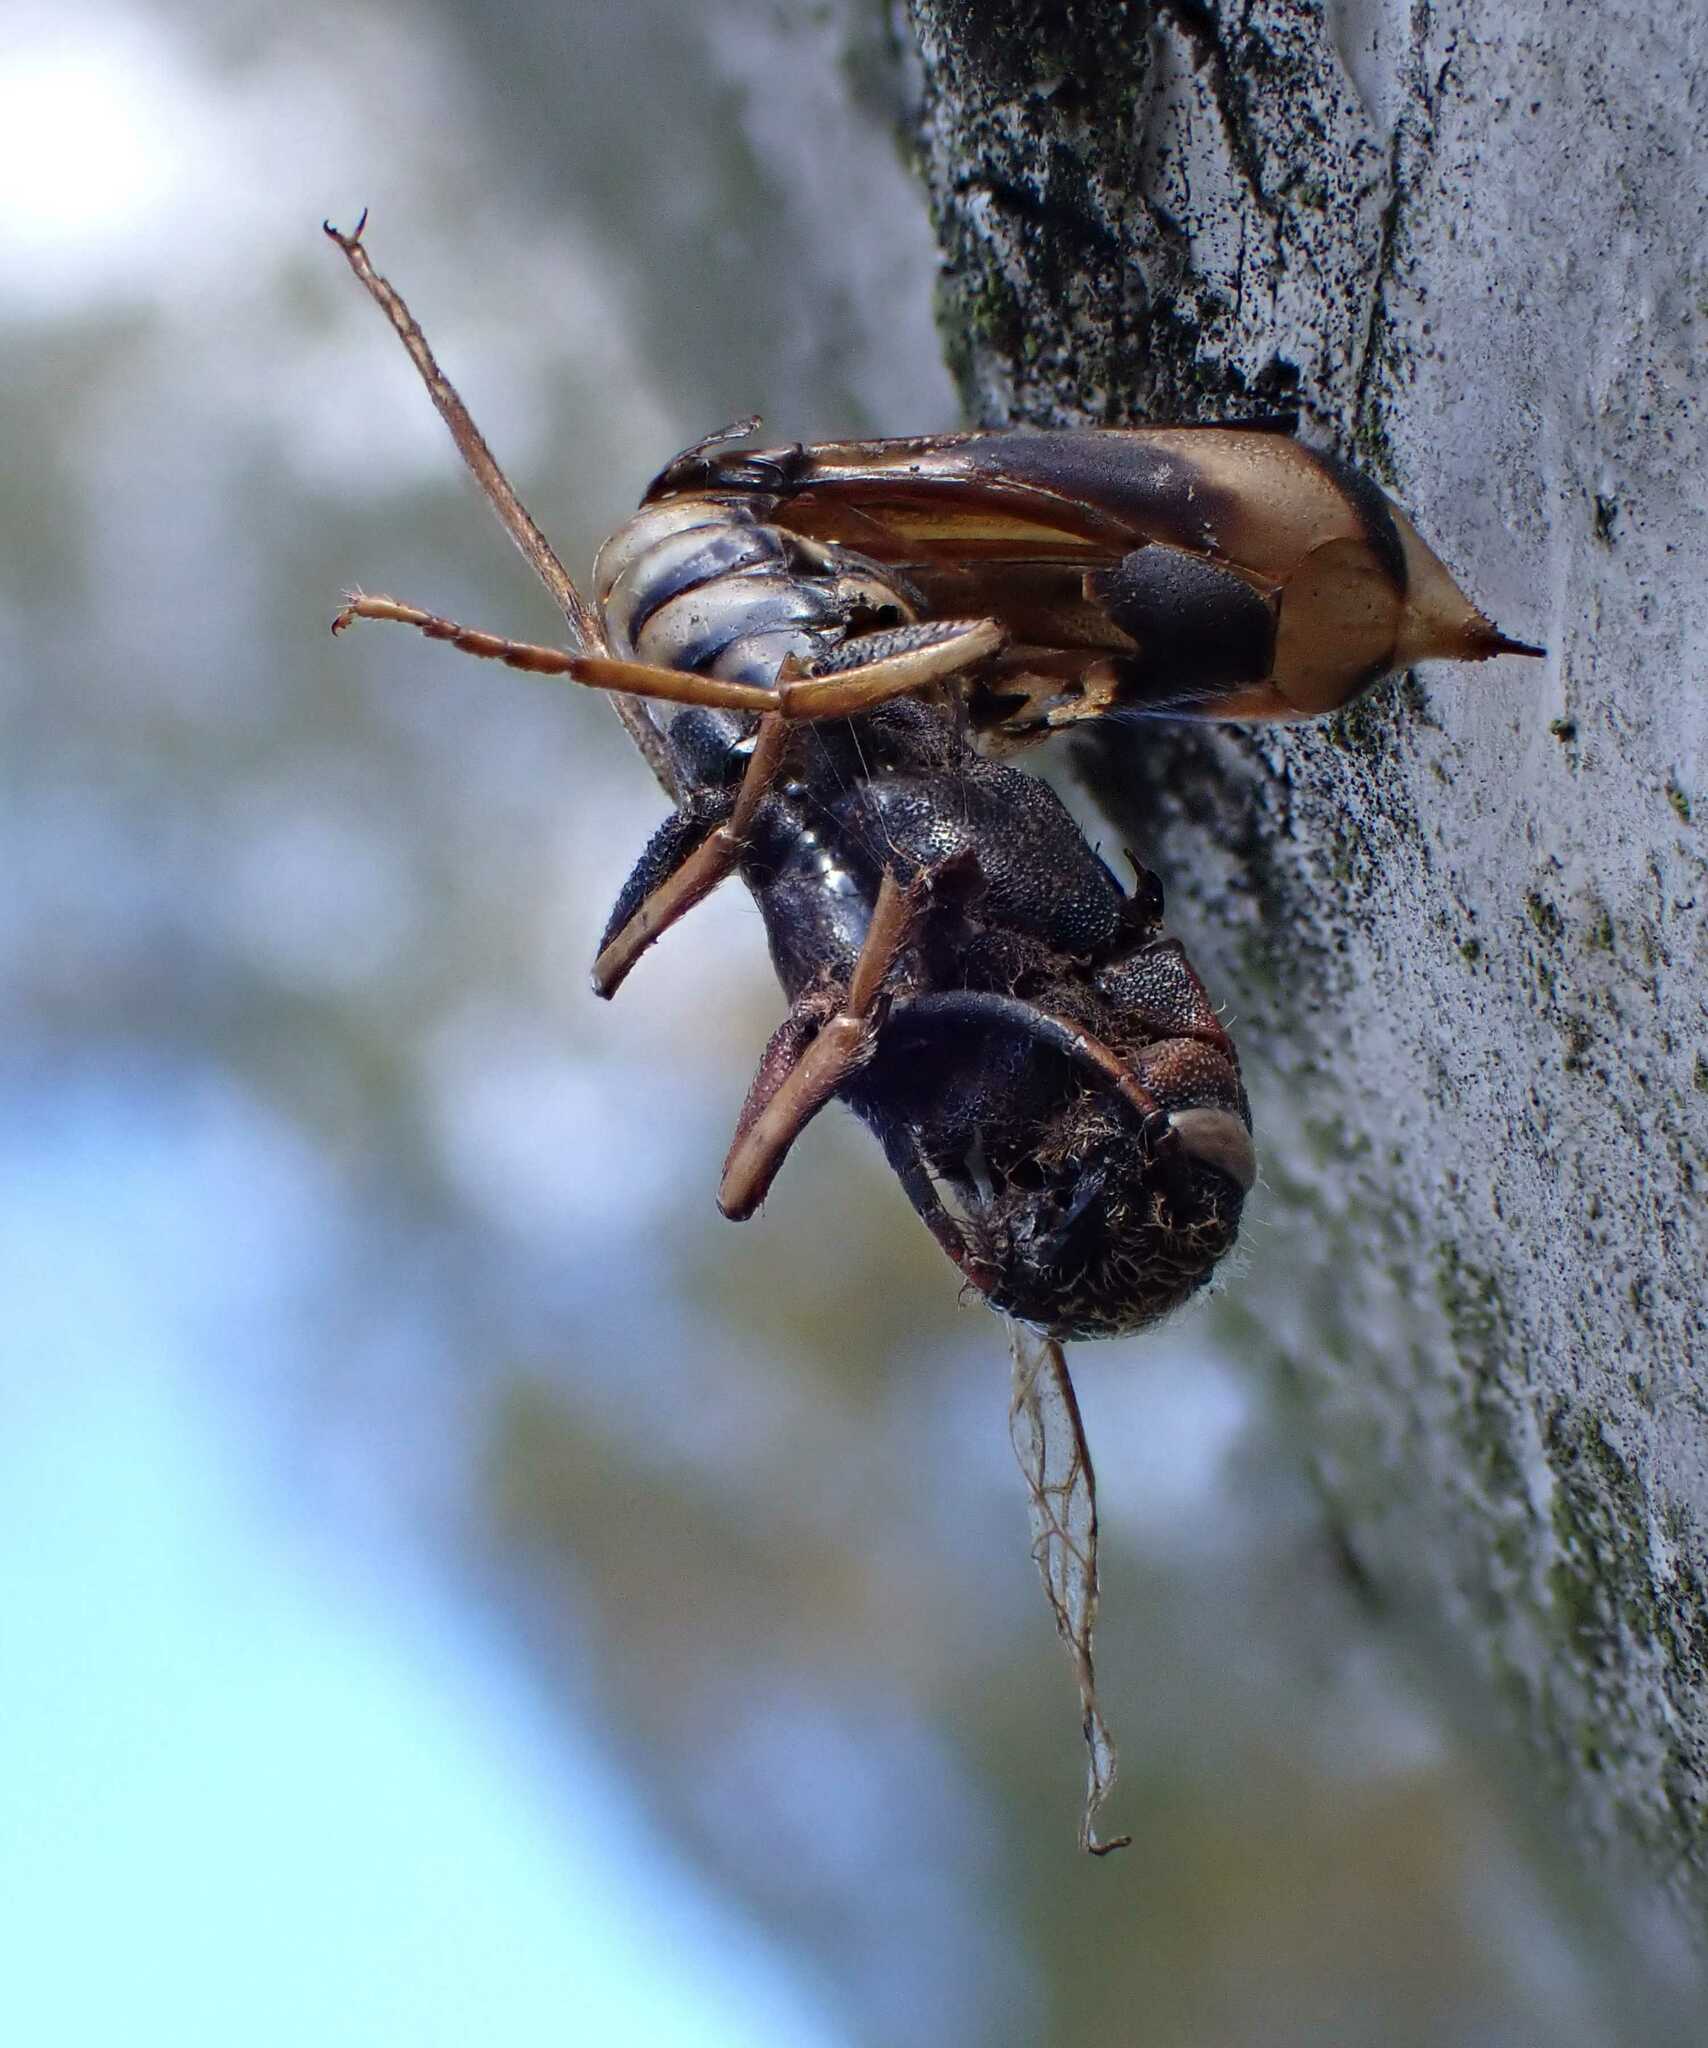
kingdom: Animalia
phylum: Arthropoda
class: Insecta
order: Hymenoptera
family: Siricidae
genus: Tremex
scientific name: Tremex fuscicornis
